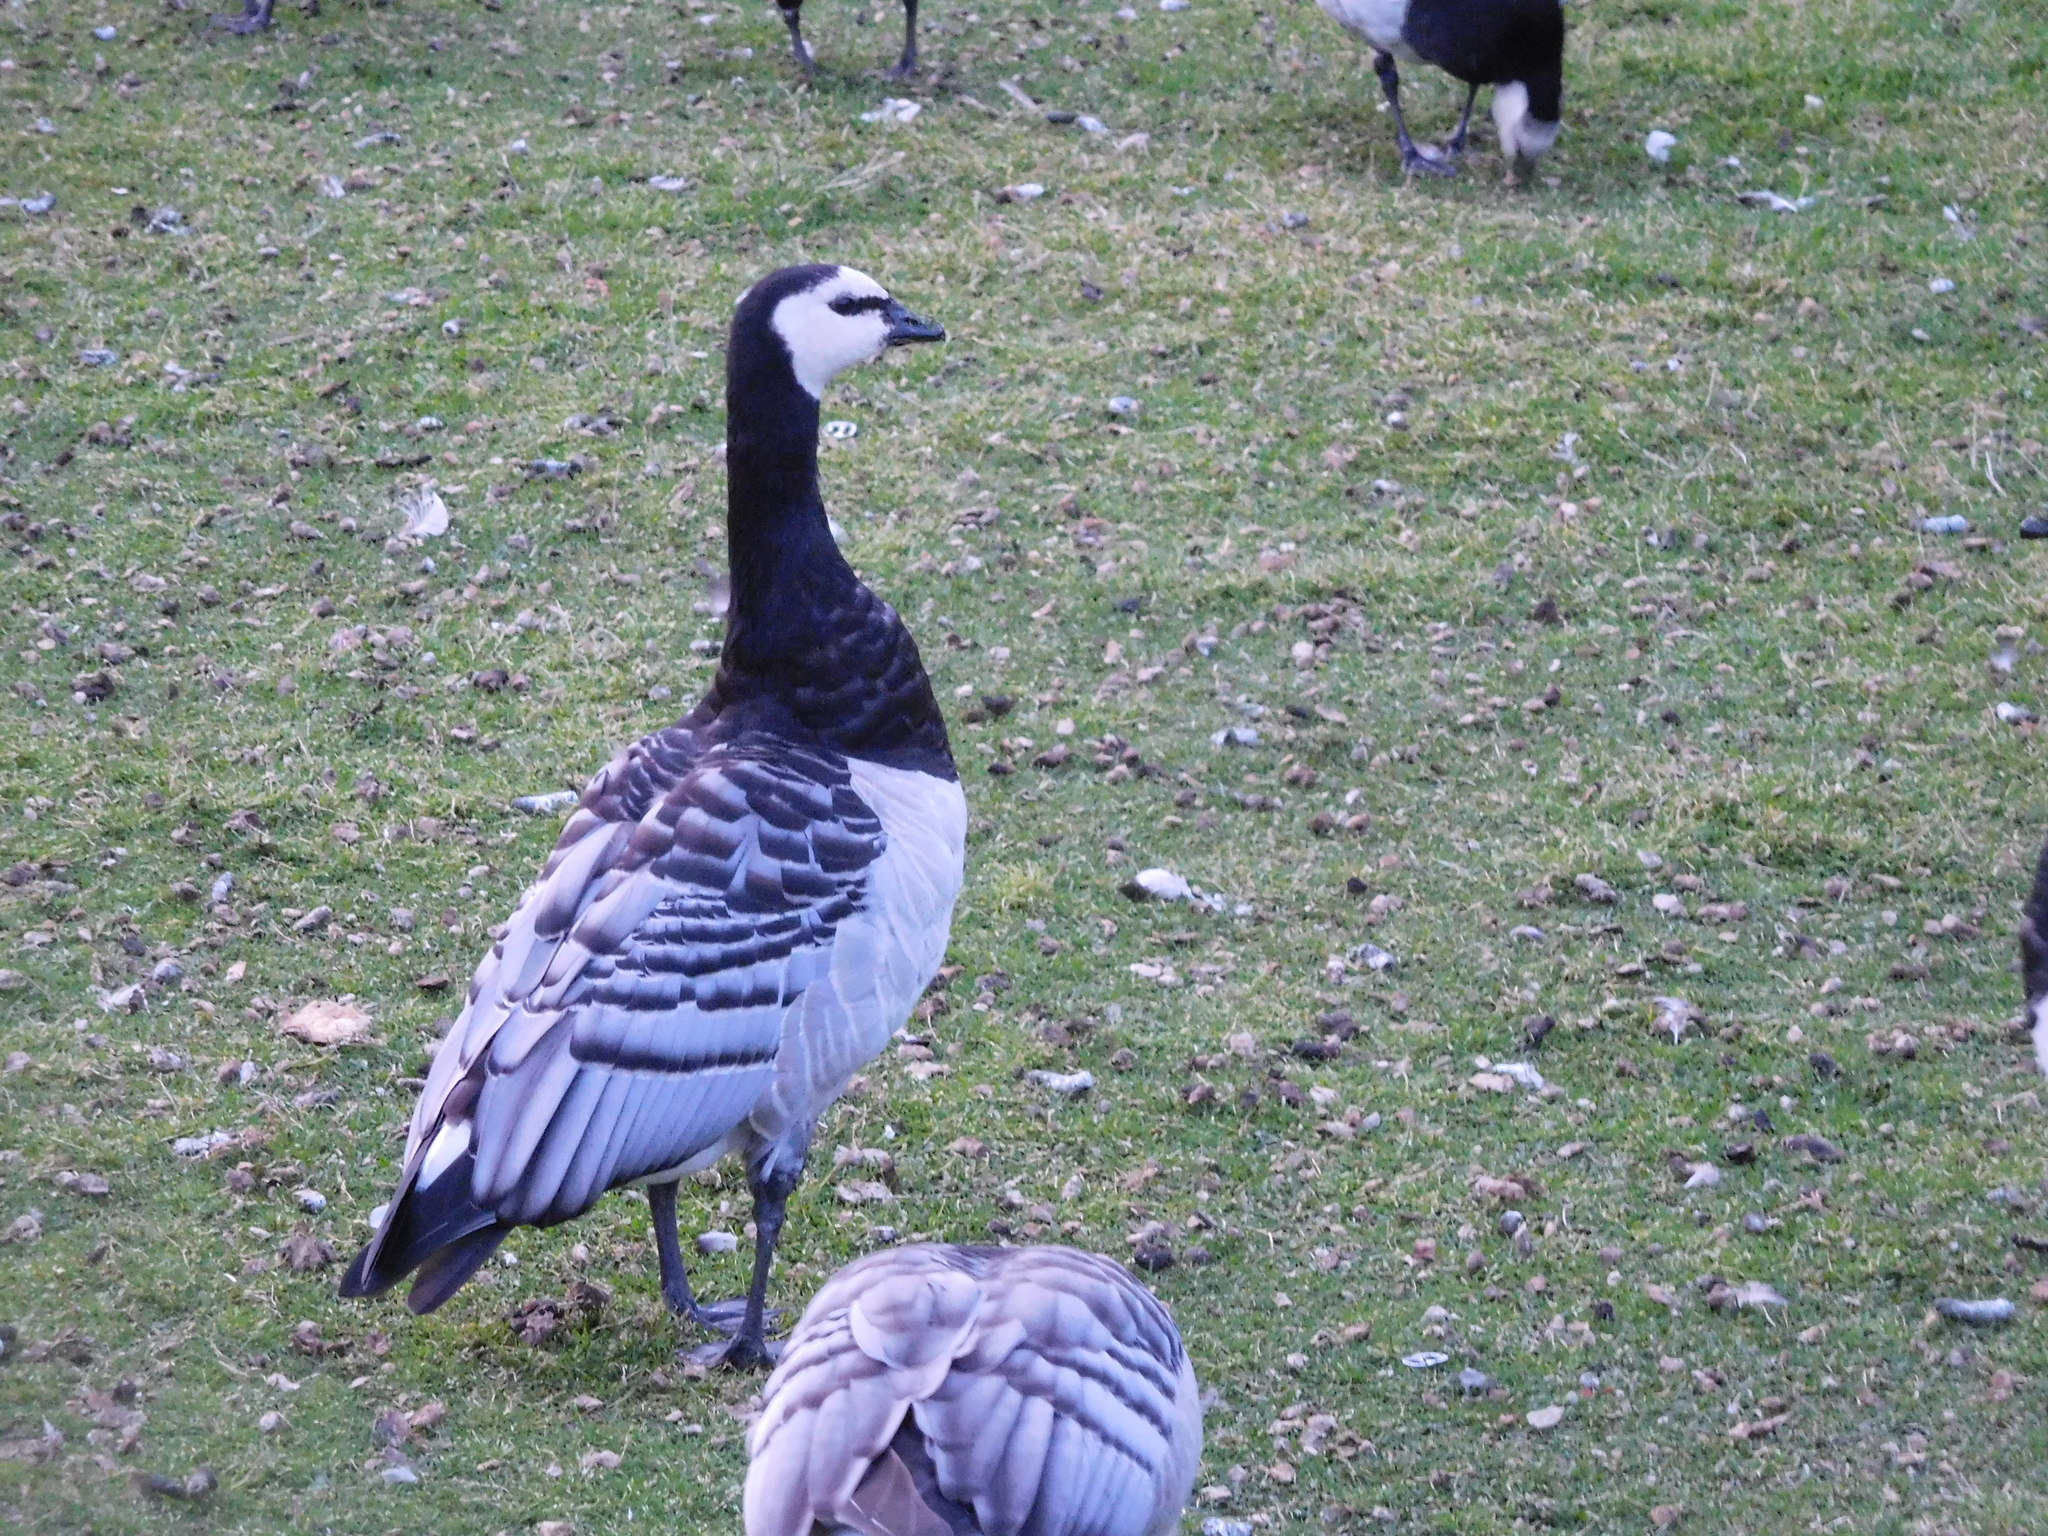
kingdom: Animalia
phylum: Chordata
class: Aves
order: Anseriformes
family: Anatidae
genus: Branta
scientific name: Branta leucopsis
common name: Barnacle goose
